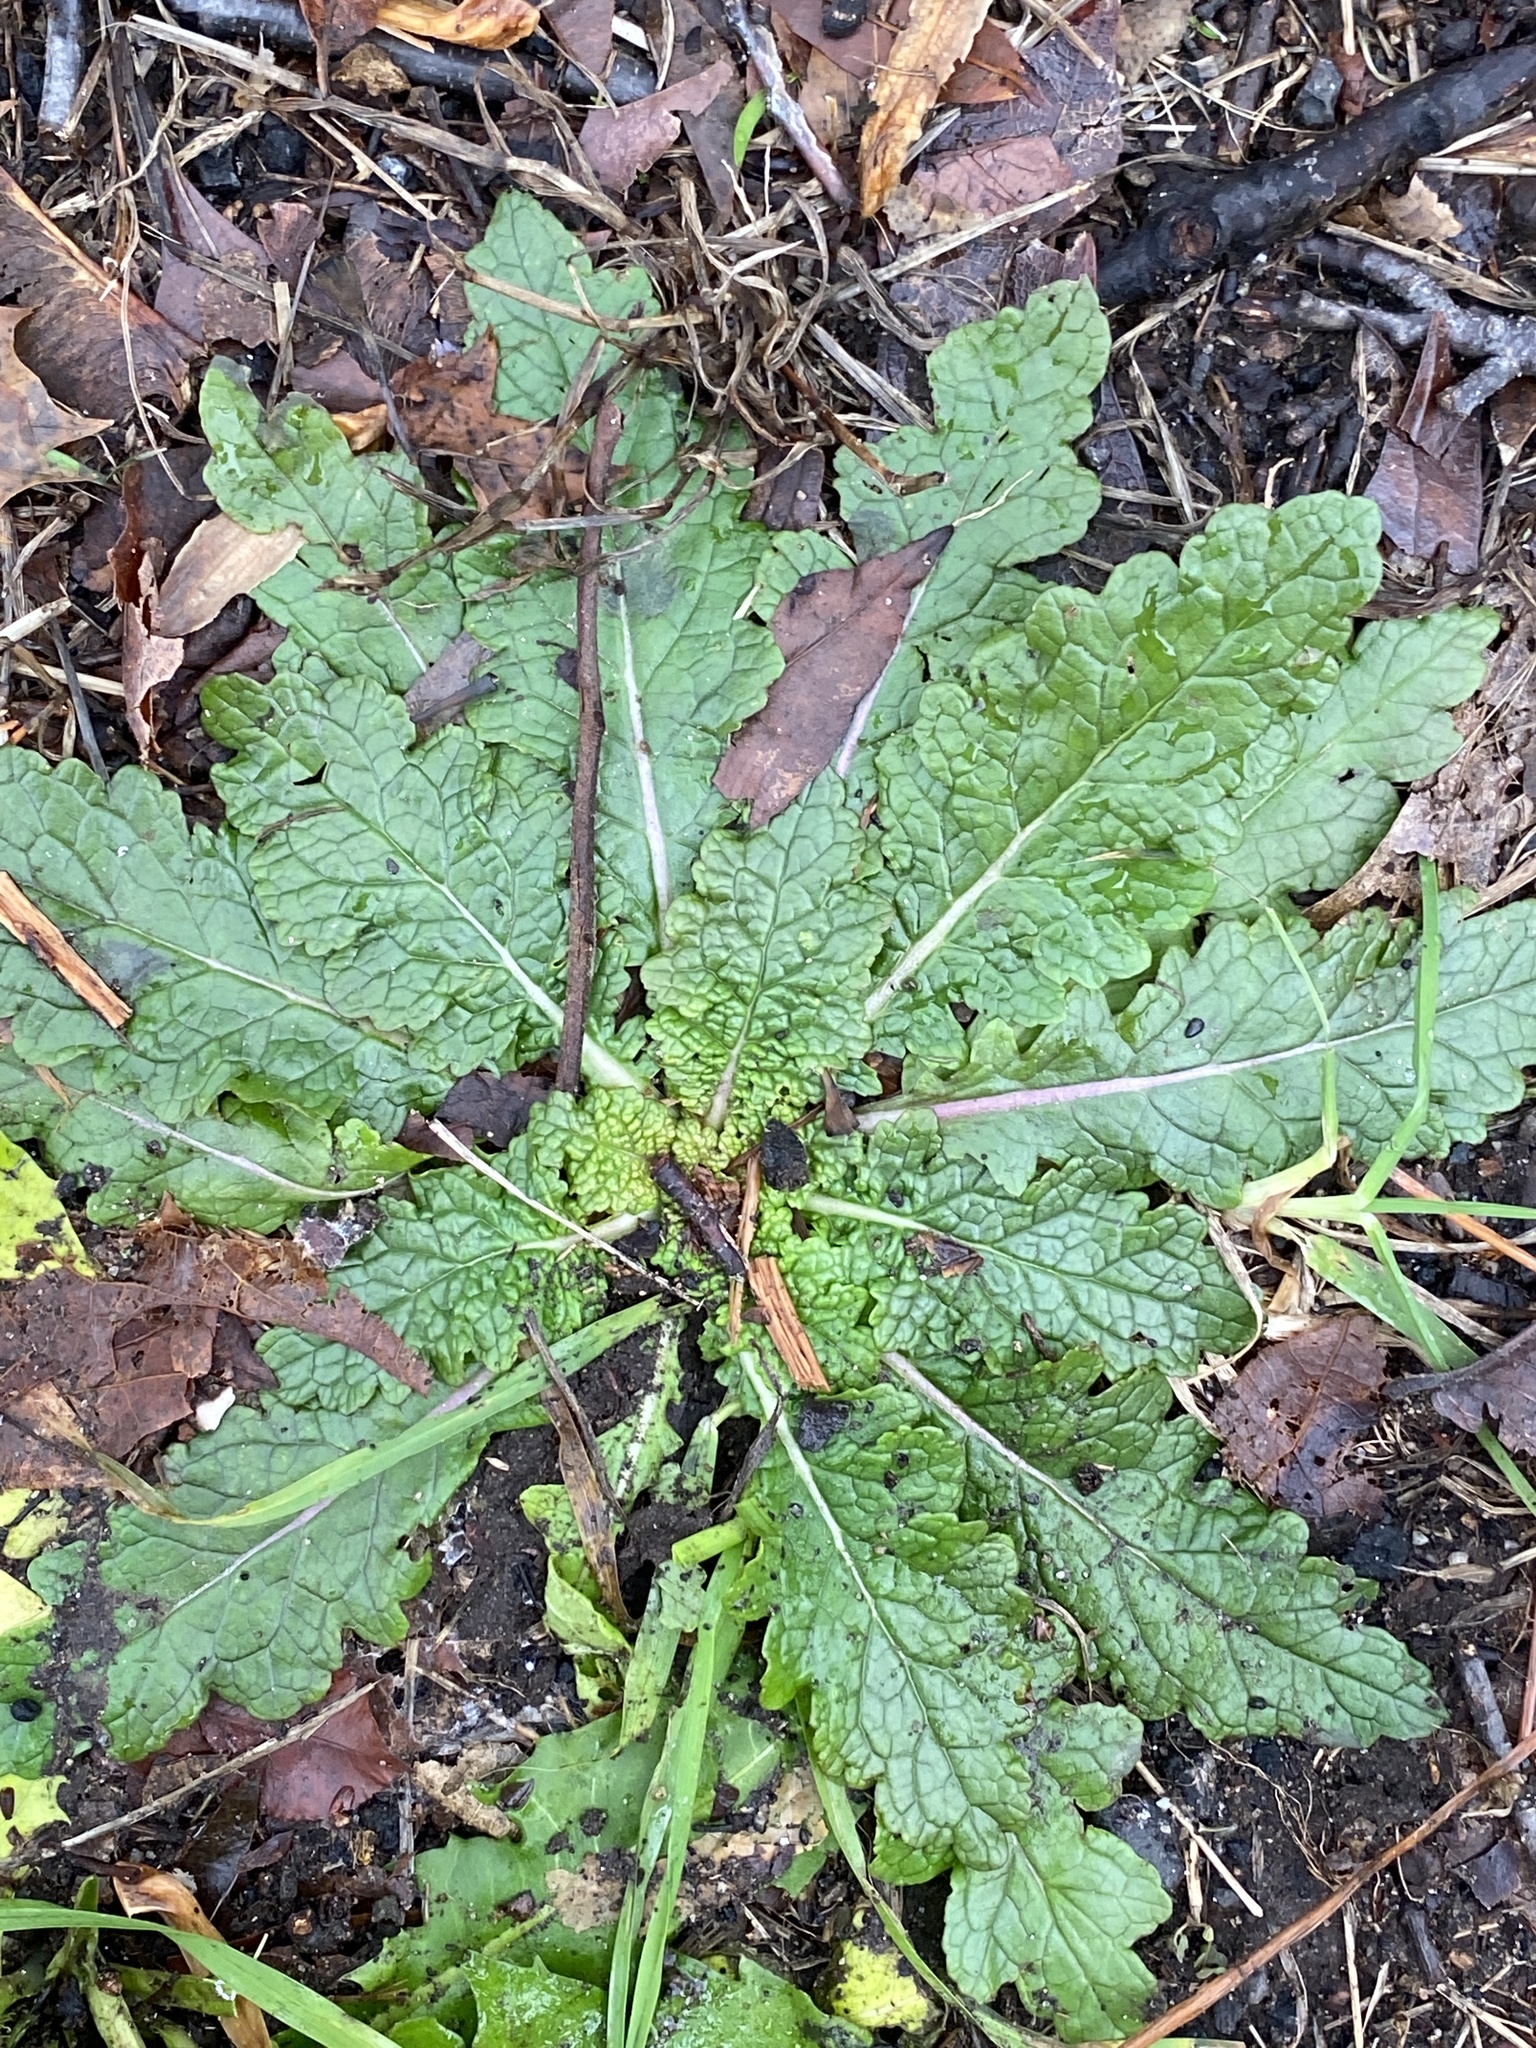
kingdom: Plantae
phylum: Tracheophyta
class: Magnoliopsida
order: Lamiales
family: Scrophulariaceae
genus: Verbascum
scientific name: Verbascum blattaria
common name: Moth mullein
